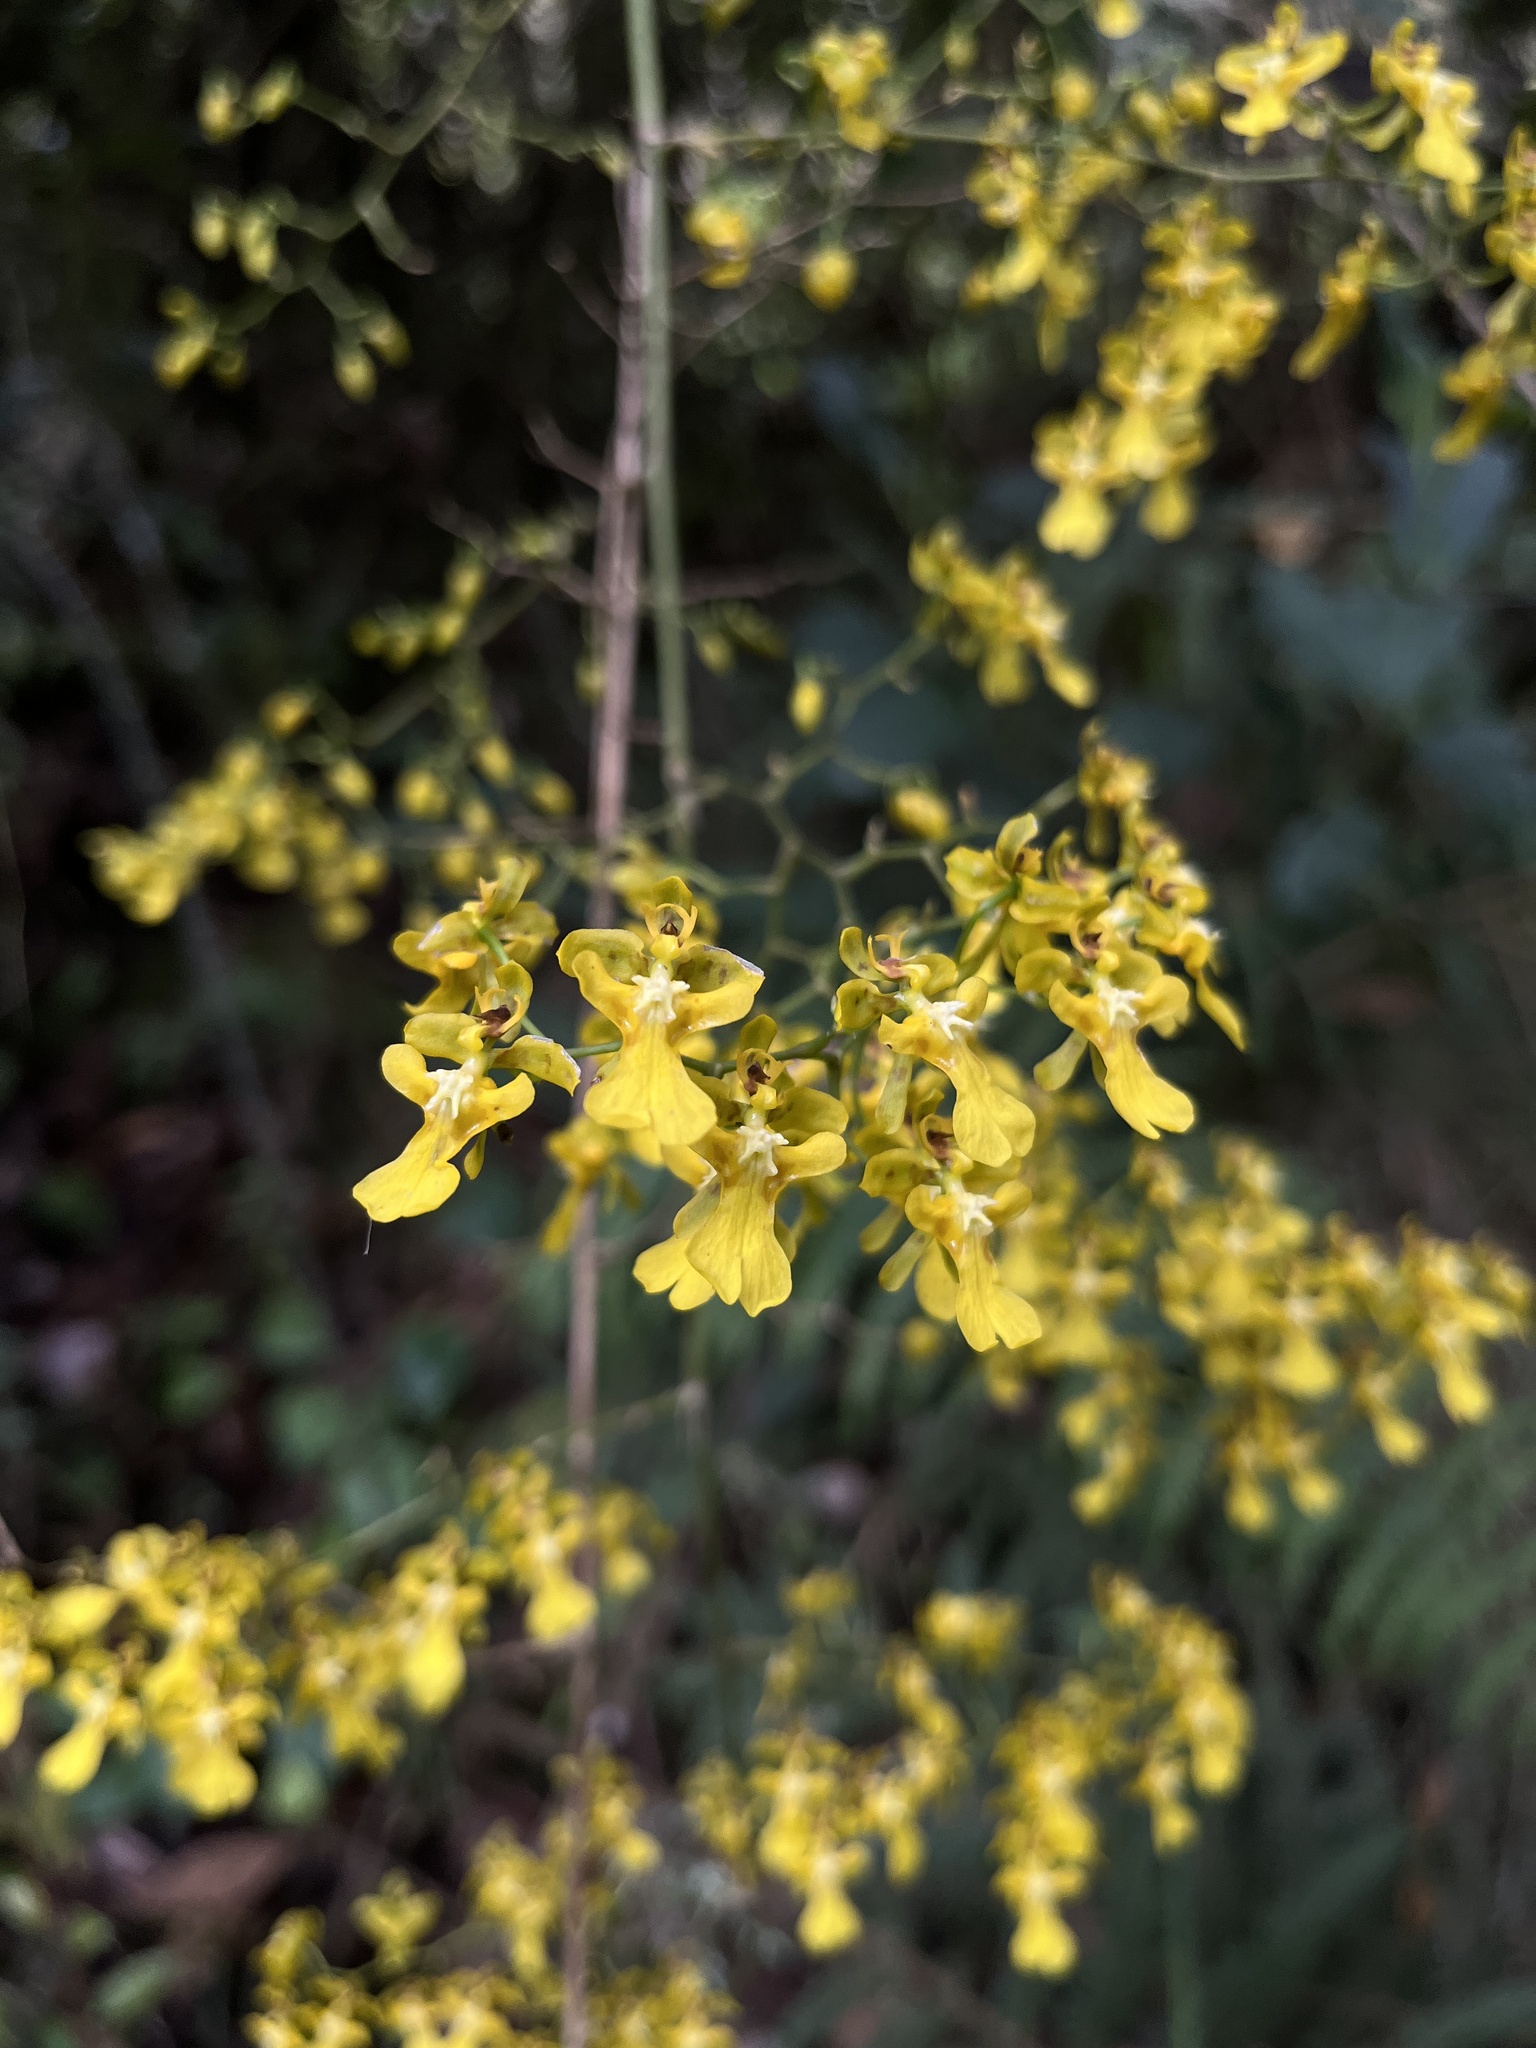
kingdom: Plantae
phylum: Tracheophyta
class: Liliopsida
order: Asparagales
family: Orchidaceae
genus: Oncidium
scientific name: Oncidium ornithorhynchum
